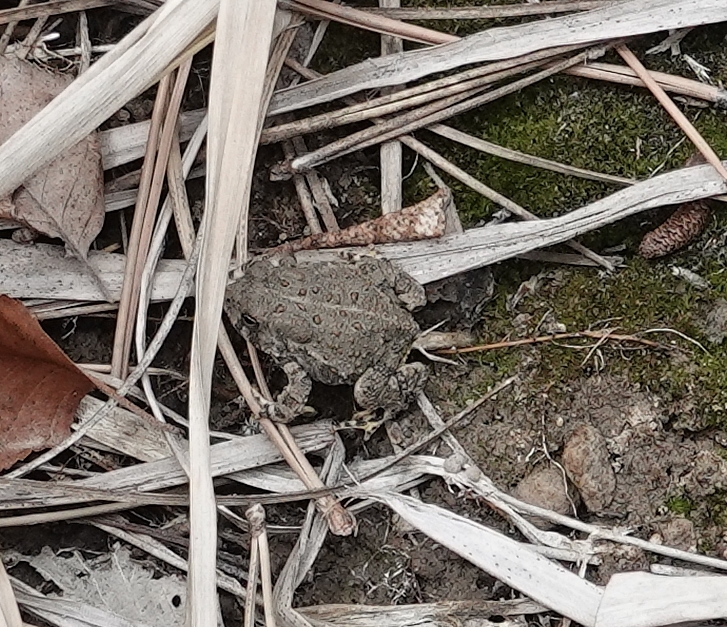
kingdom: Animalia
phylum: Chordata
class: Amphibia
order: Anura
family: Bufonidae
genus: Anaxyrus
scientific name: Anaxyrus woodhousii
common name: Woodhouse's toad
